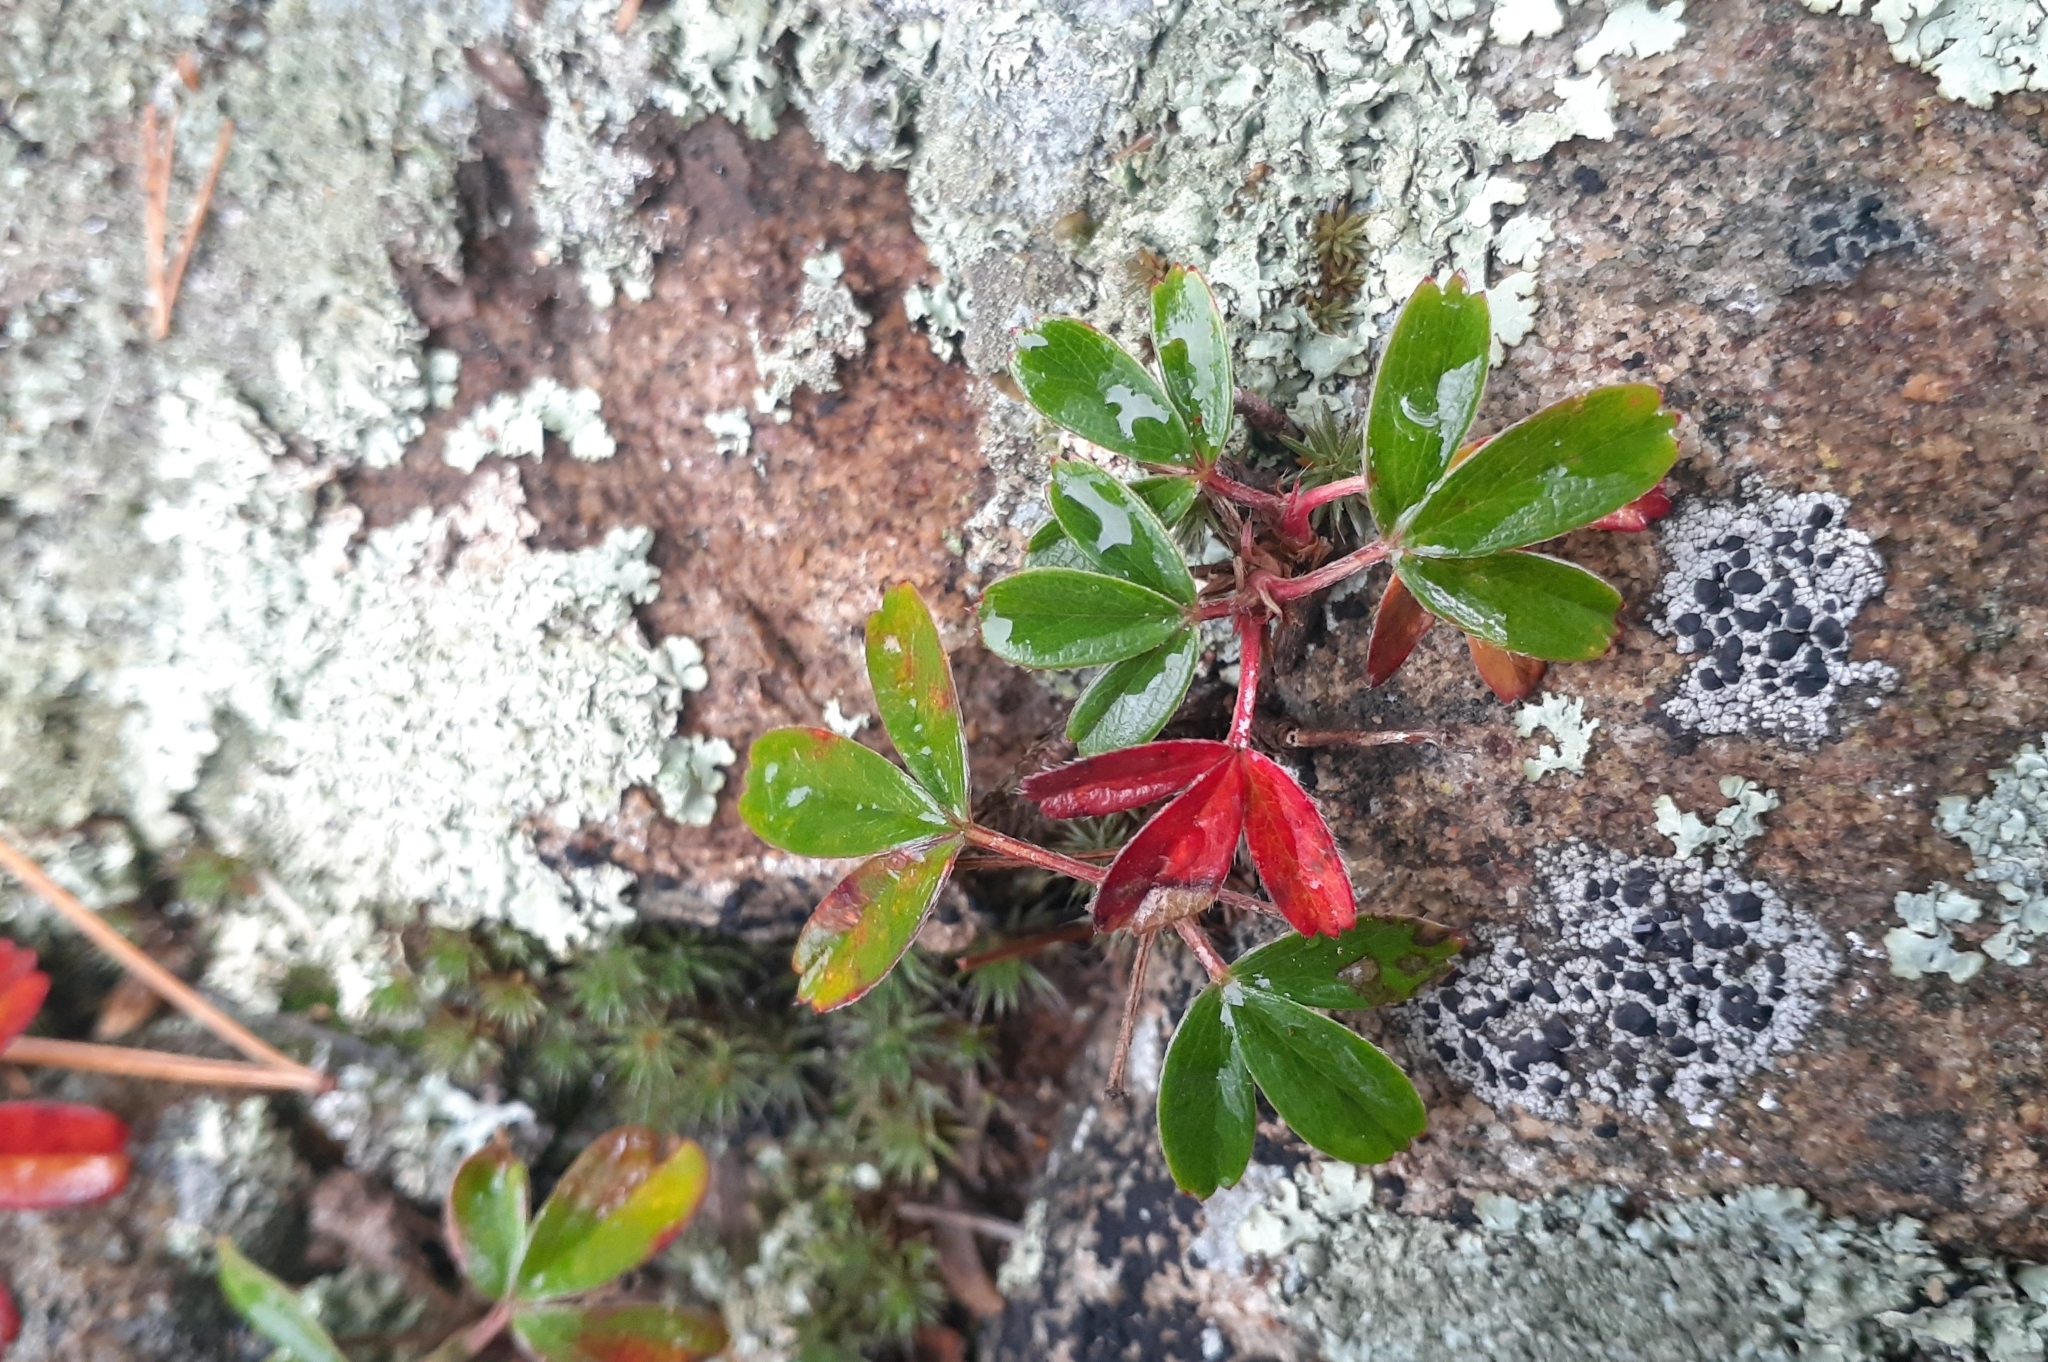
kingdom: Plantae
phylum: Tracheophyta
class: Magnoliopsida
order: Rosales
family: Rosaceae
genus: Sibbaldia
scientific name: Sibbaldia tridentata
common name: Three-toothed cinquefoil
